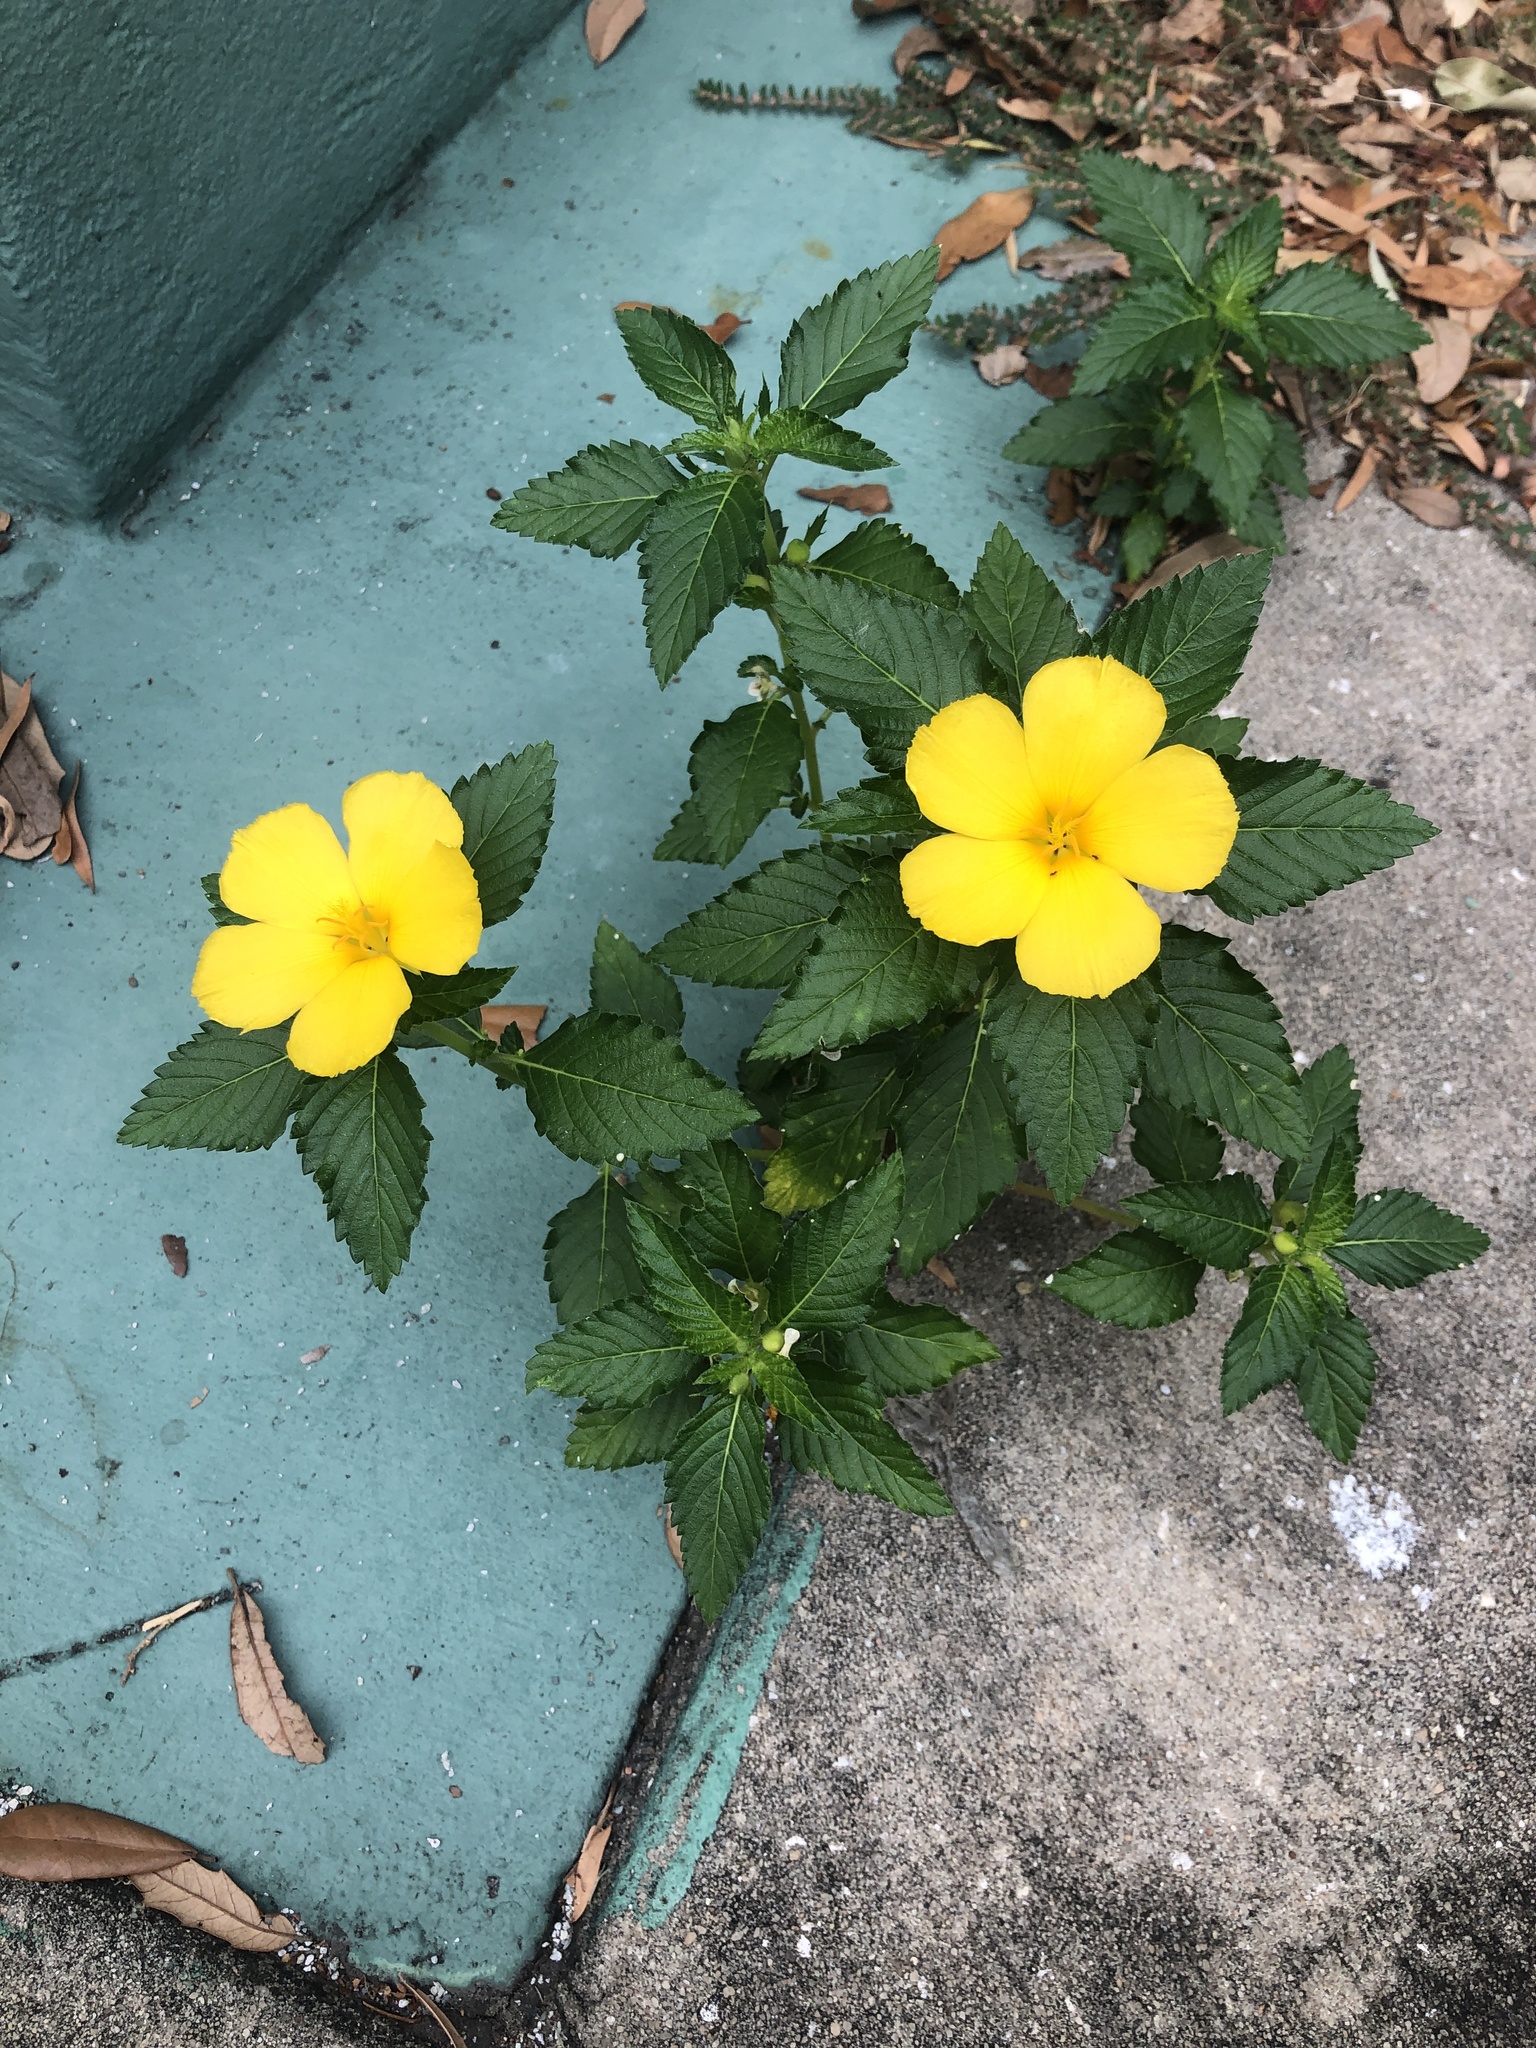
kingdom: Plantae
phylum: Tracheophyta
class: Magnoliopsida
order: Malpighiales
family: Turneraceae
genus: Turnera
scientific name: Turnera ulmifolia
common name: Ramgoat dashalong
